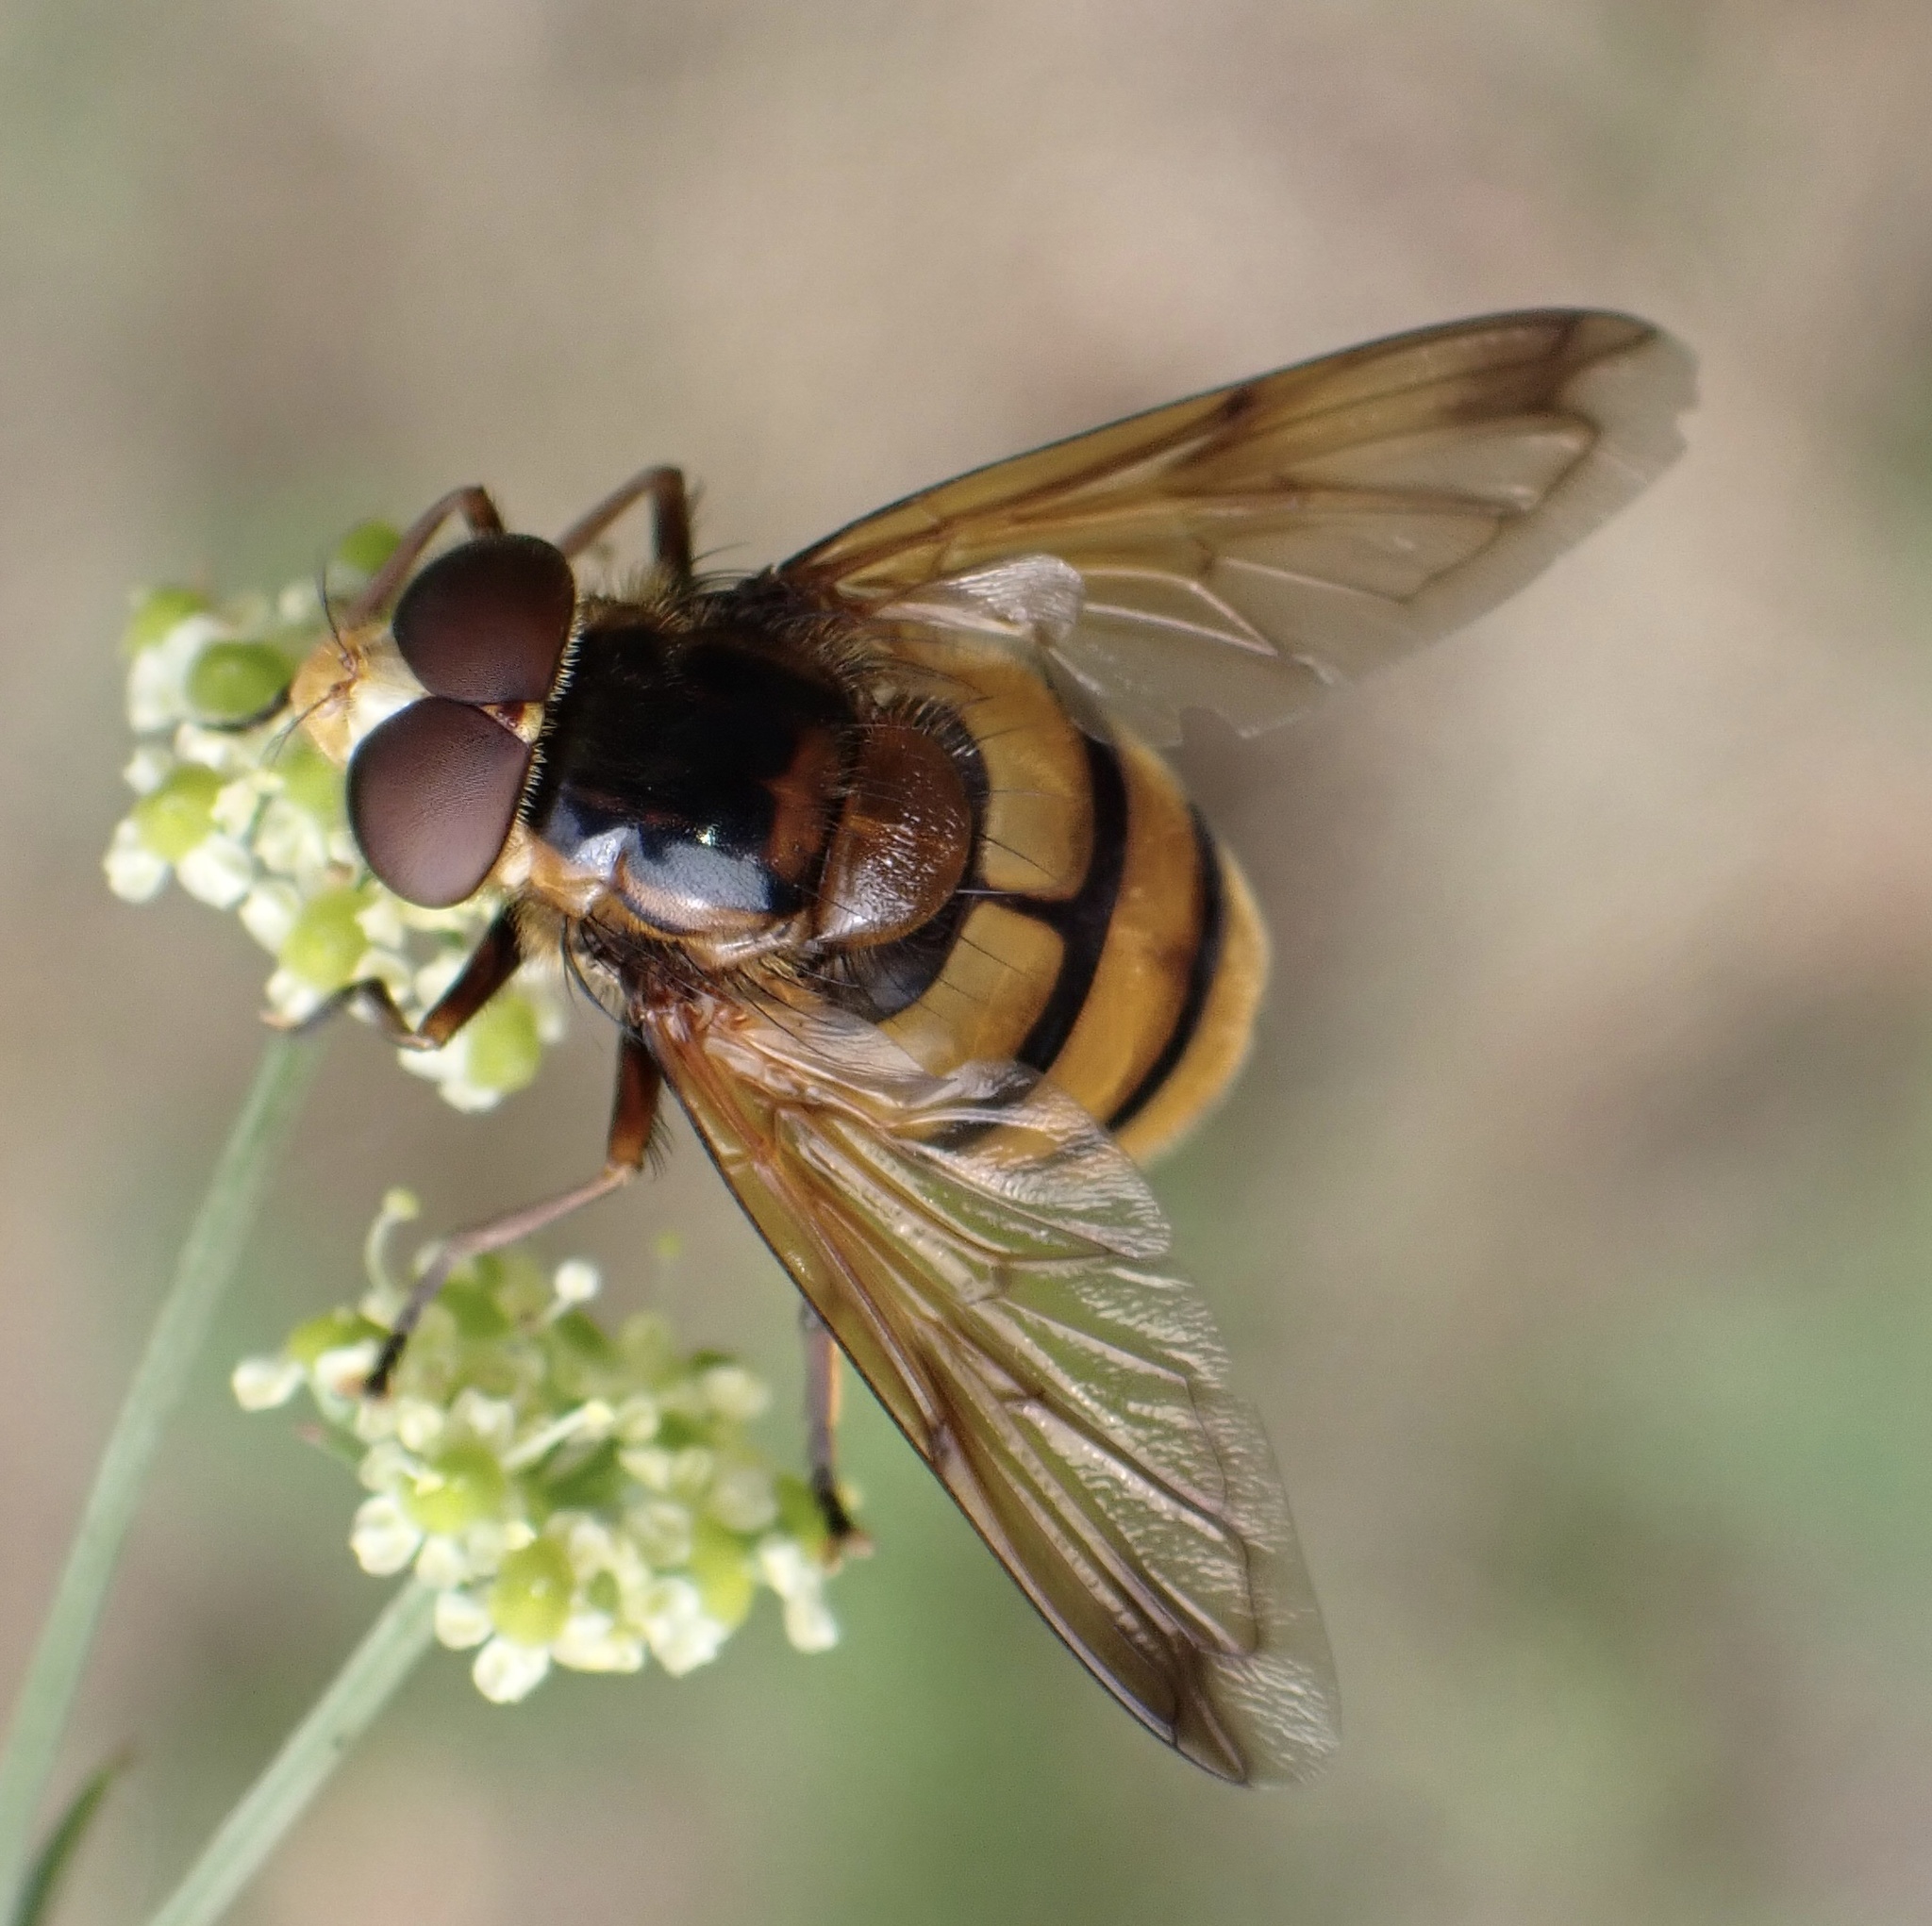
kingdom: Animalia
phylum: Arthropoda
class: Insecta
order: Diptera
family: Syrphidae
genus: Volucella
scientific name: Volucella inanis
